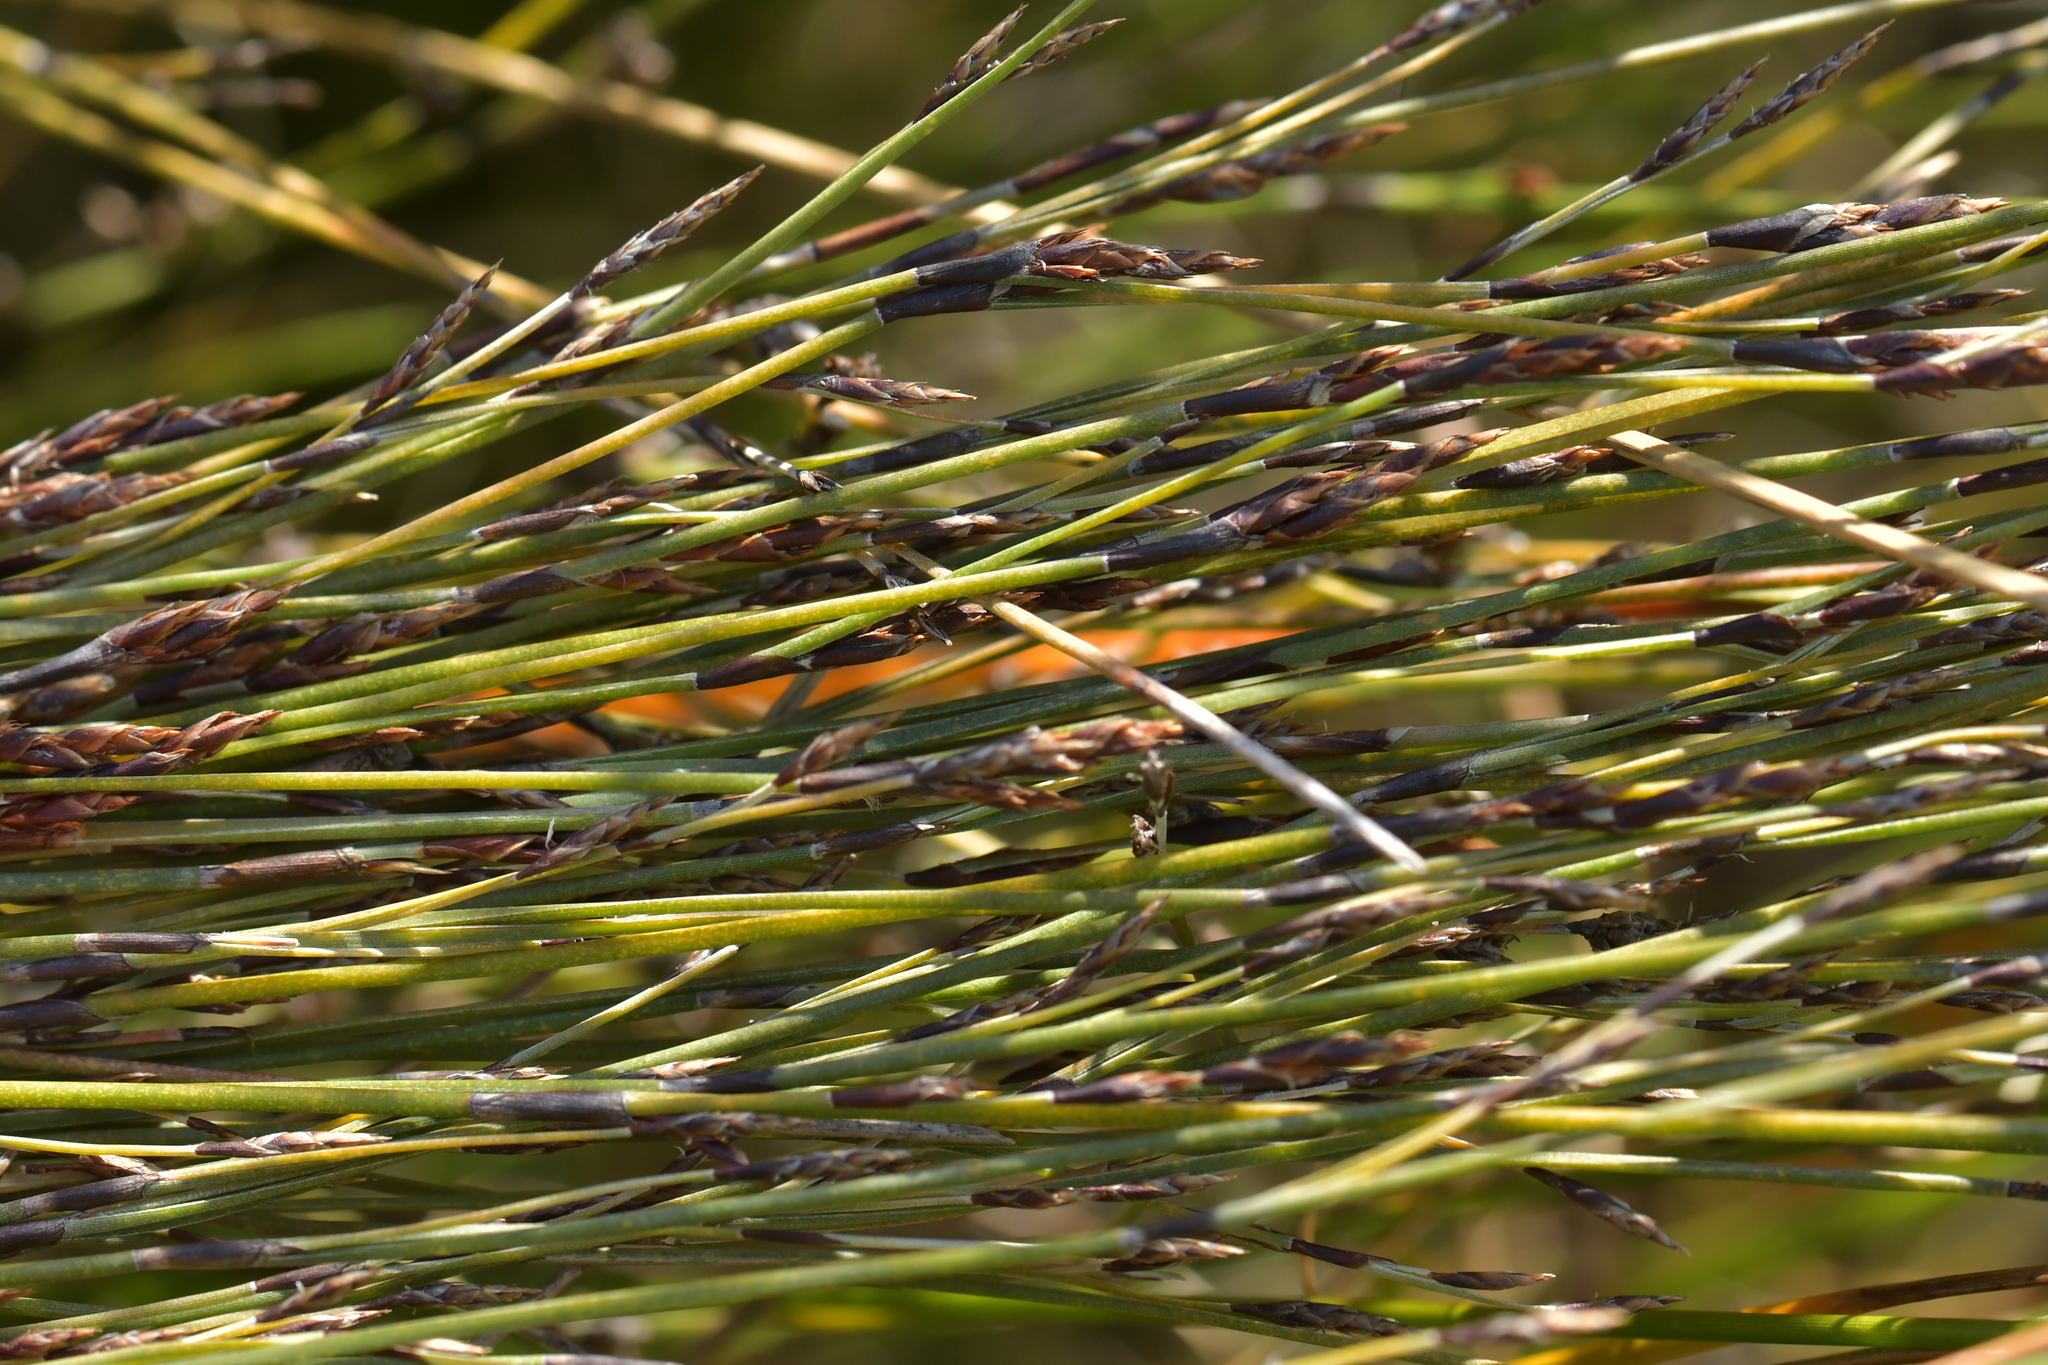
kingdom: Plantae
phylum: Tracheophyta
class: Liliopsida
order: Poales
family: Restionaceae
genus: Apodasmia
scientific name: Apodasmia similis
